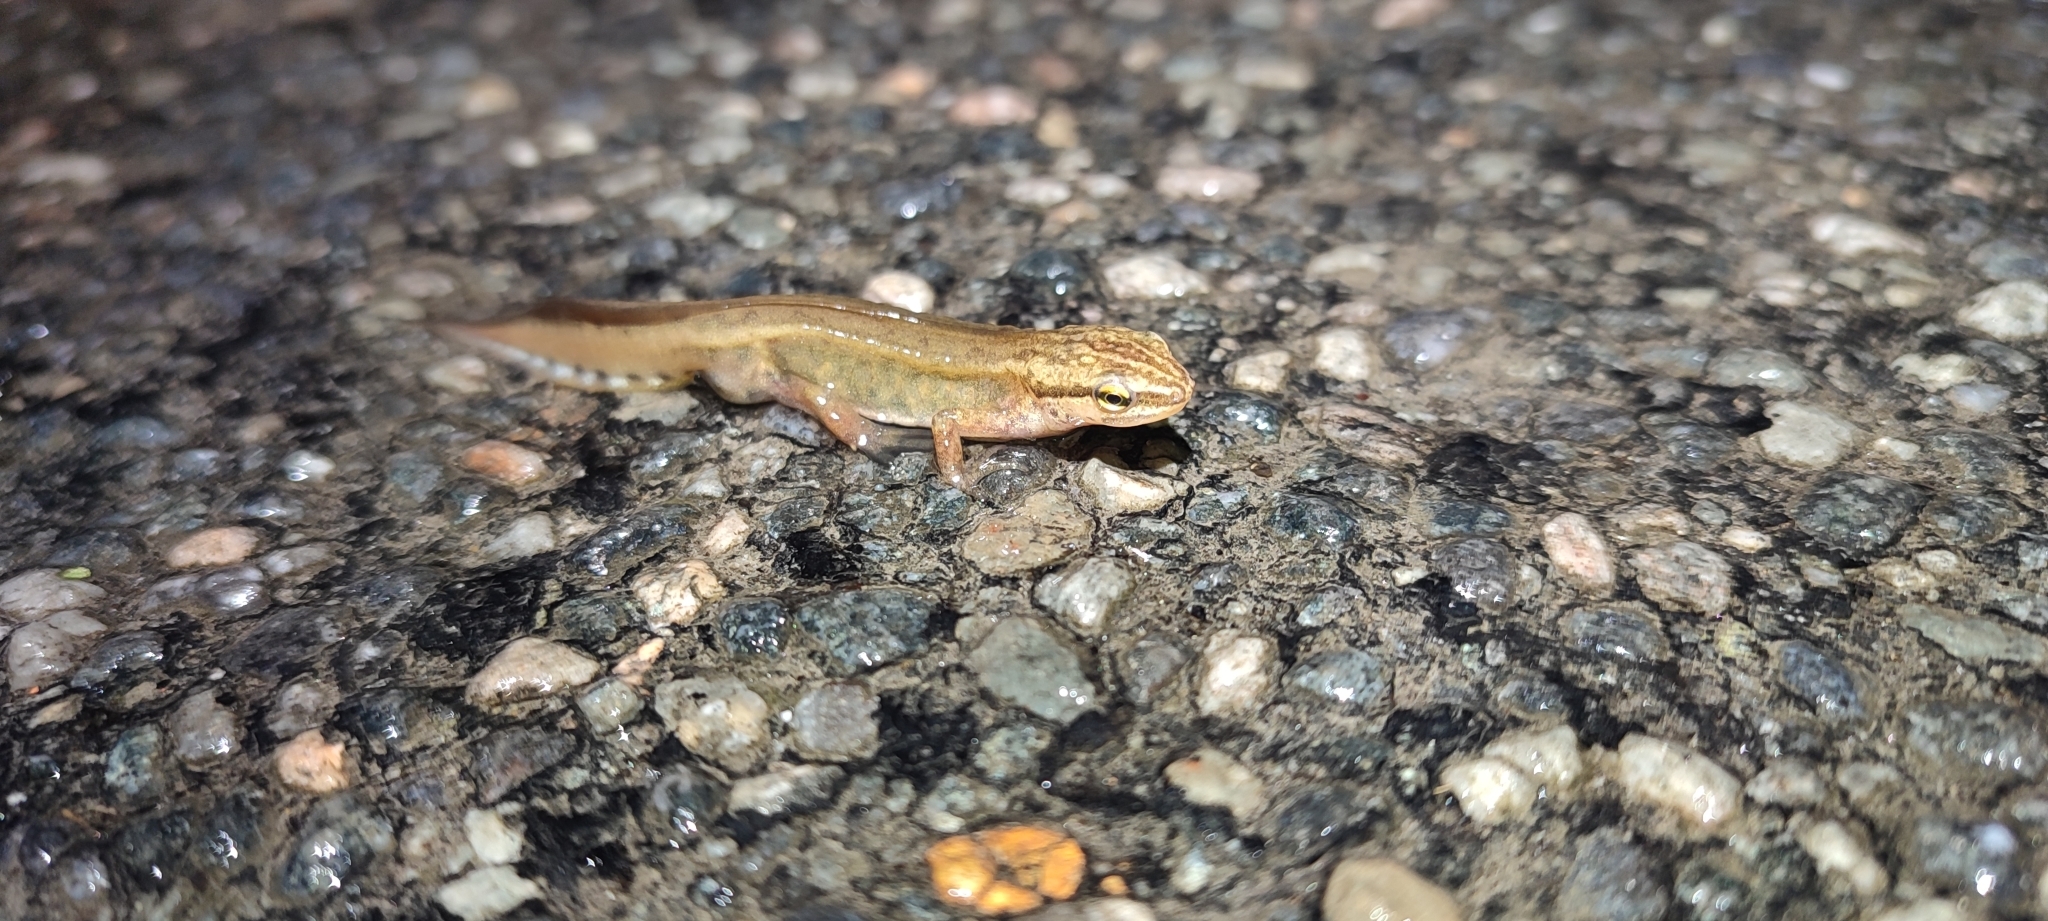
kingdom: Animalia
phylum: Chordata
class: Amphibia
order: Caudata
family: Salamandridae
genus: Lissotriton
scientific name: Lissotriton helveticus
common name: Palmate newt
